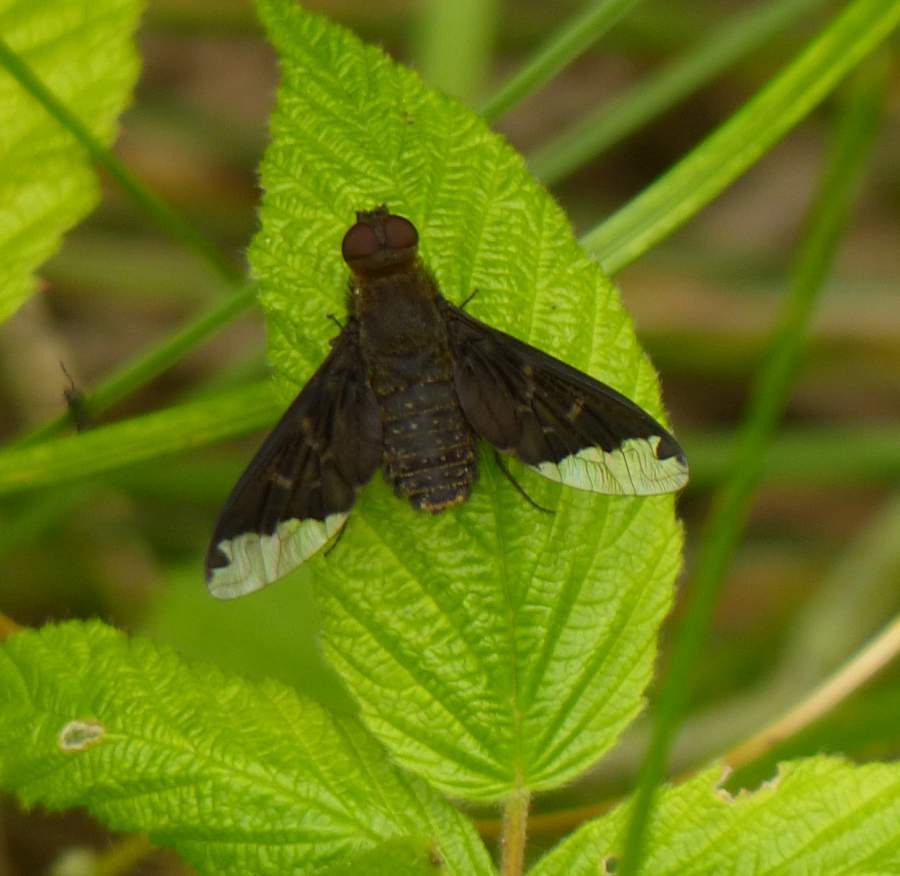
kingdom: Animalia
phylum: Arthropoda
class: Insecta
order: Diptera
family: Bombyliidae
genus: Hemipenthes
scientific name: Hemipenthes sinuosus
